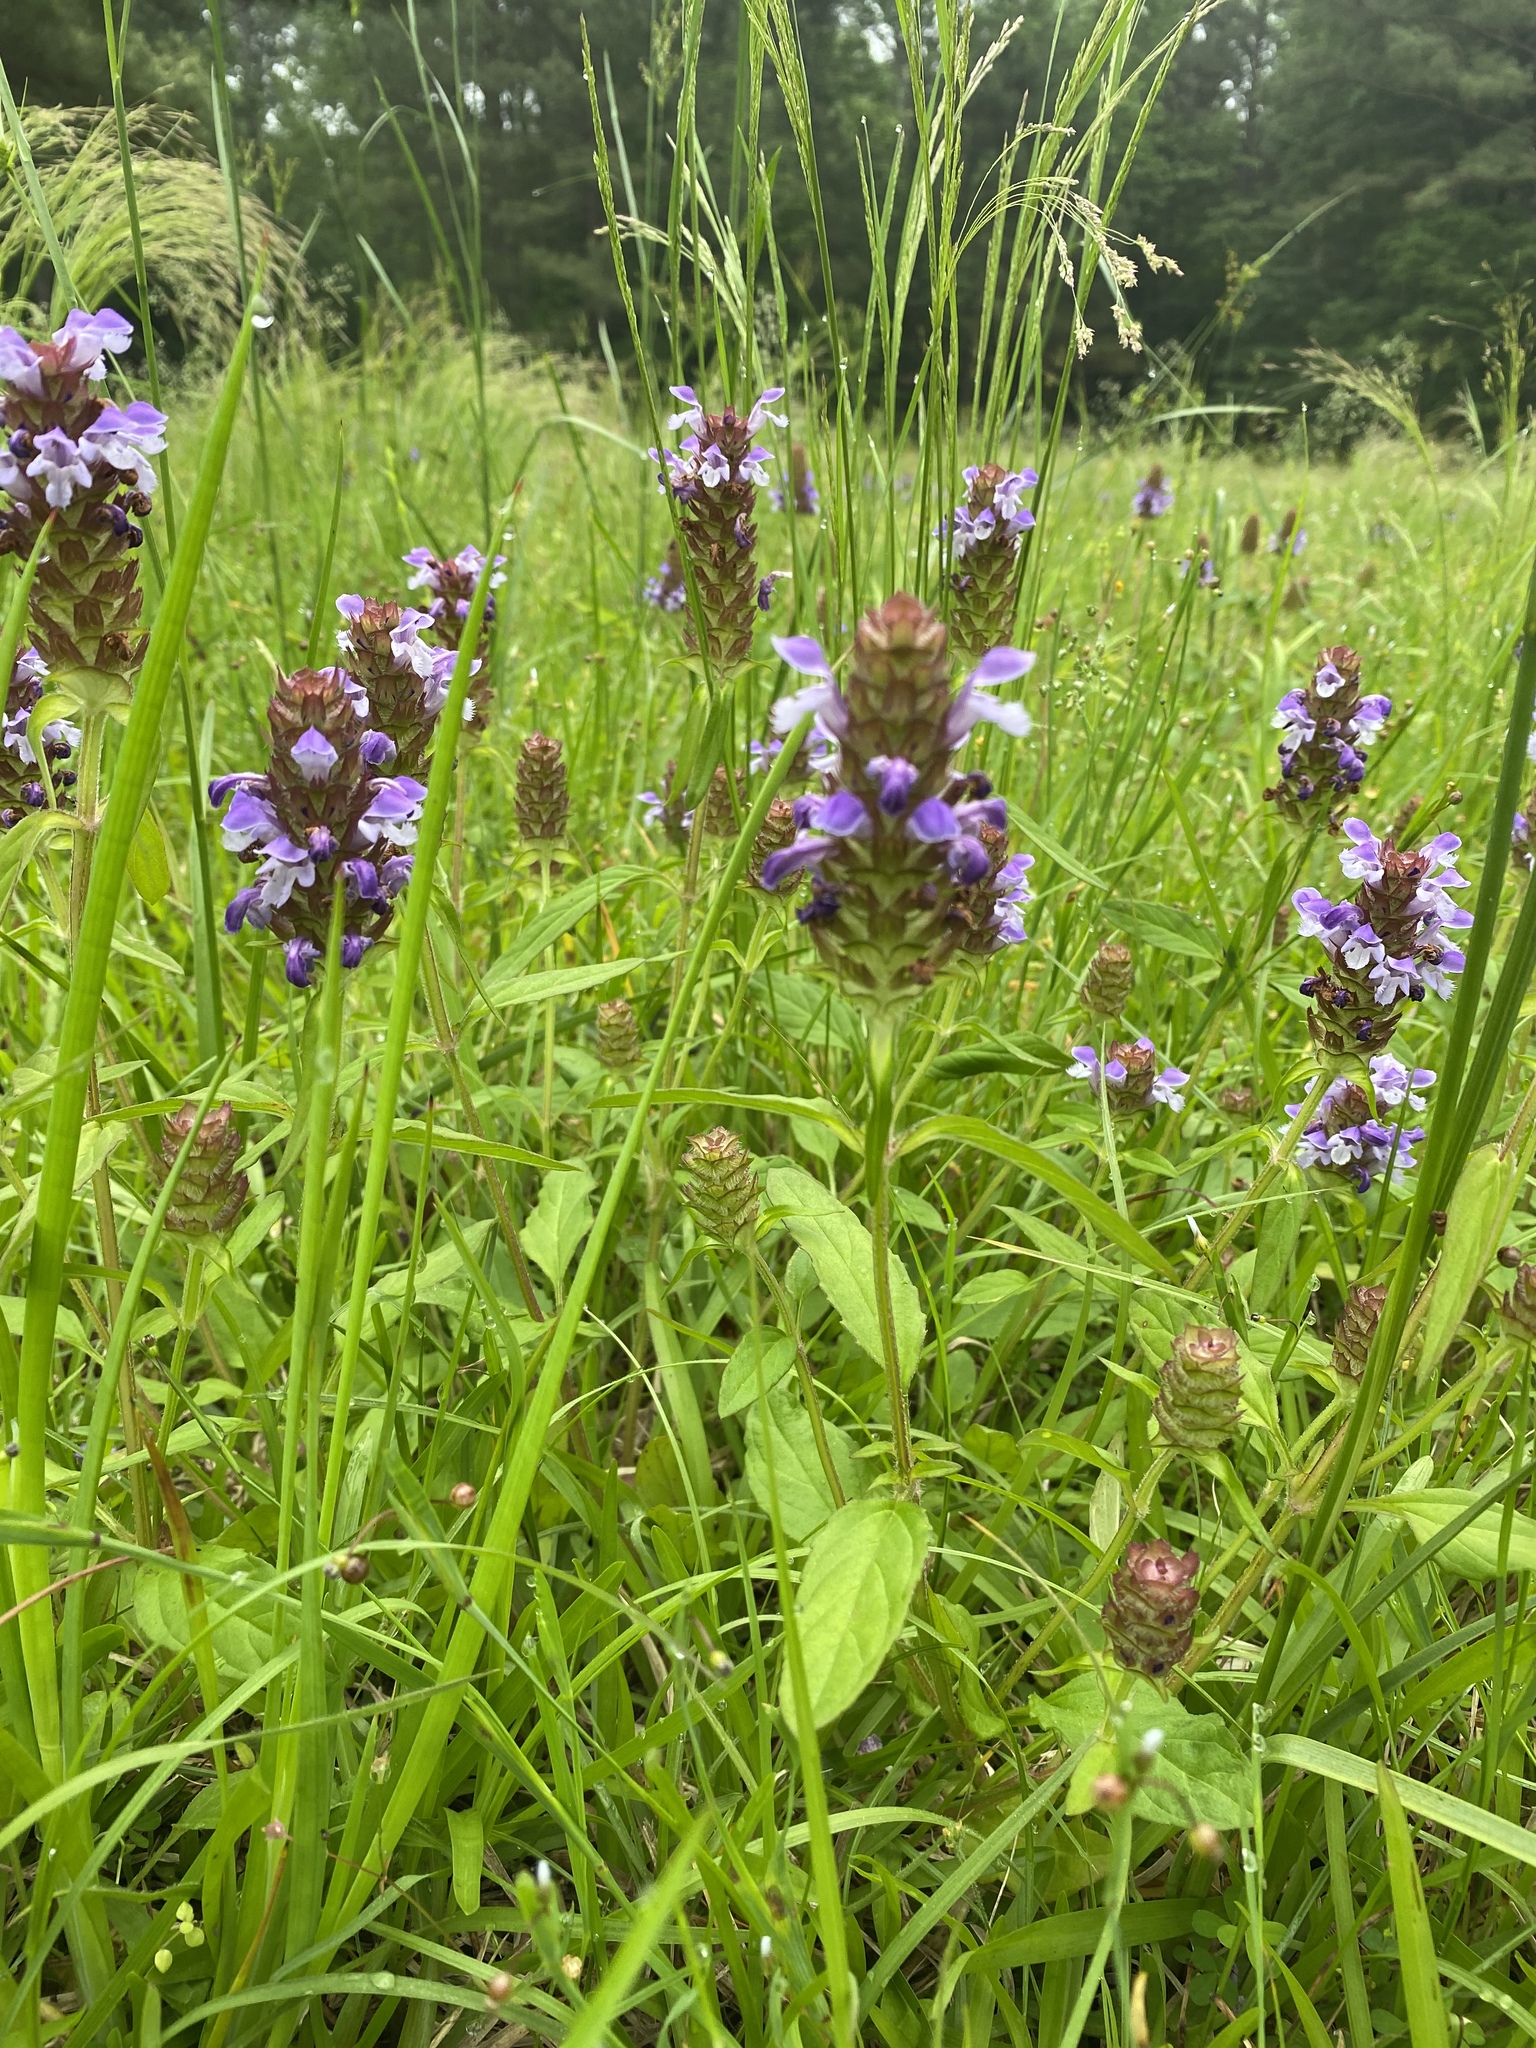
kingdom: Plantae
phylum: Tracheophyta
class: Magnoliopsida
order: Lamiales
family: Lamiaceae
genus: Prunella
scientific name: Prunella vulgaris
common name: Heal-all
